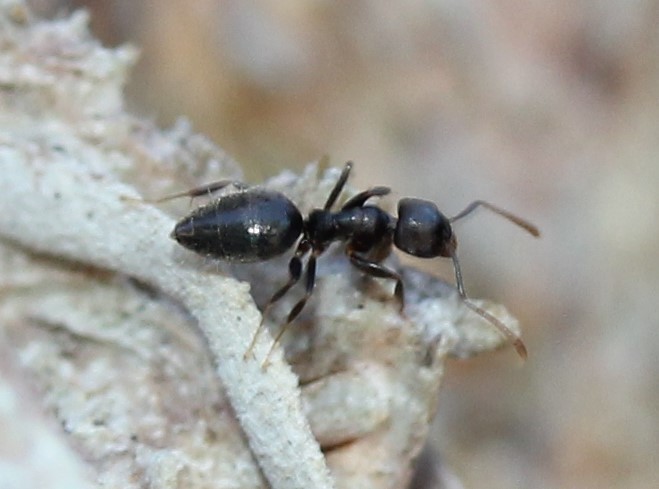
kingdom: Animalia
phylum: Arthropoda
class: Insecta
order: Hymenoptera
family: Formicidae
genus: Technomyrmex
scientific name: Technomyrmex difficilis
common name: Ant
